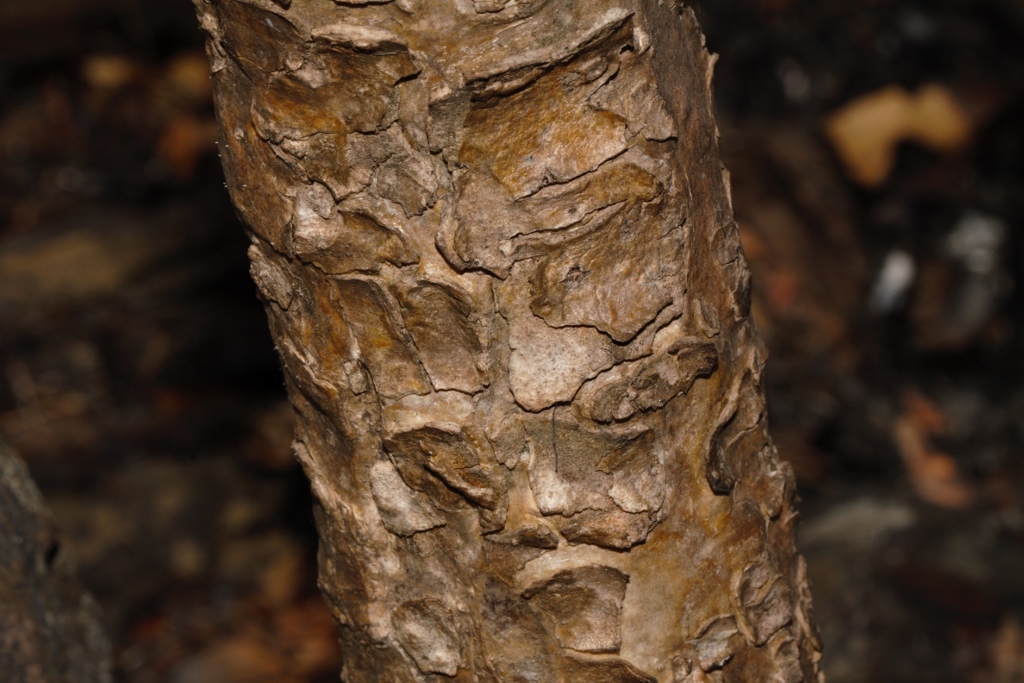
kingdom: Plantae
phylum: Tracheophyta
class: Magnoliopsida
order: Lamiales
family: Lamiaceae
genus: Rotheca
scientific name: Rotheca wildii
